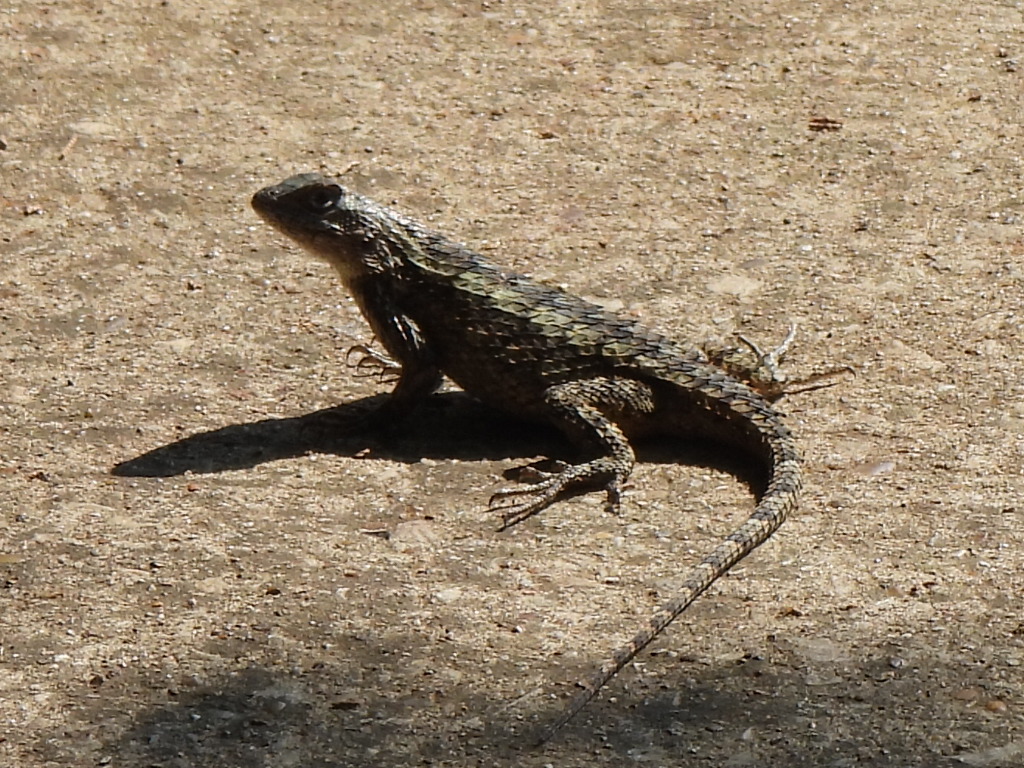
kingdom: Animalia
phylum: Chordata
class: Squamata
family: Phrynosomatidae
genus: Sceloporus
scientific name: Sceloporus olivaceus
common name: Texas spiny lizard
